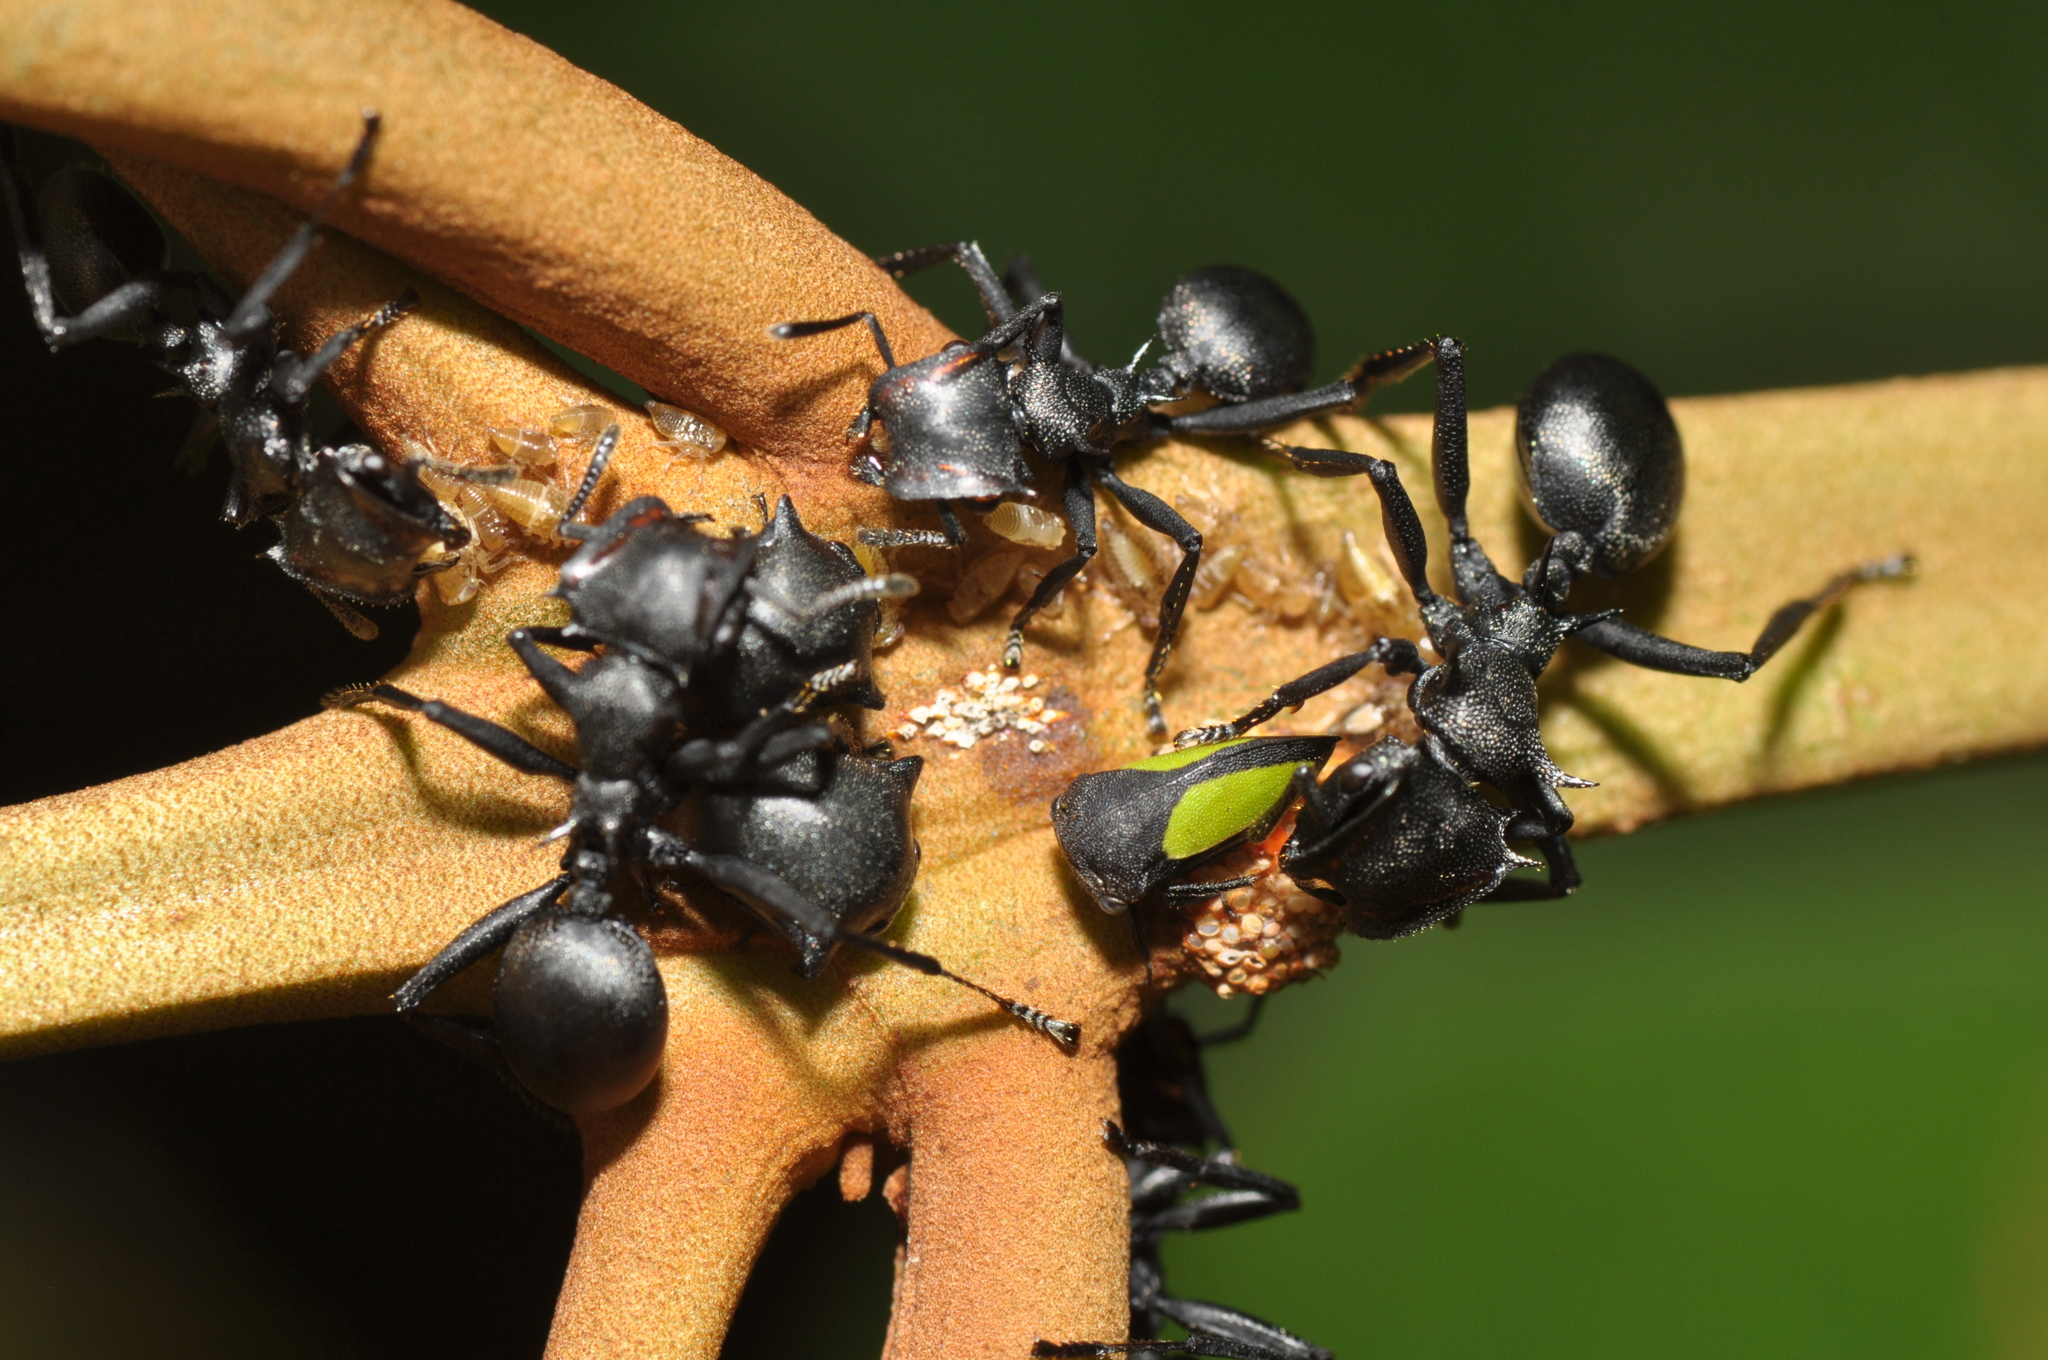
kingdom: Animalia
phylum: Arthropoda
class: Insecta
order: Hymenoptera
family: Formicidae
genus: Cephalotes
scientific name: Cephalotes atratus
